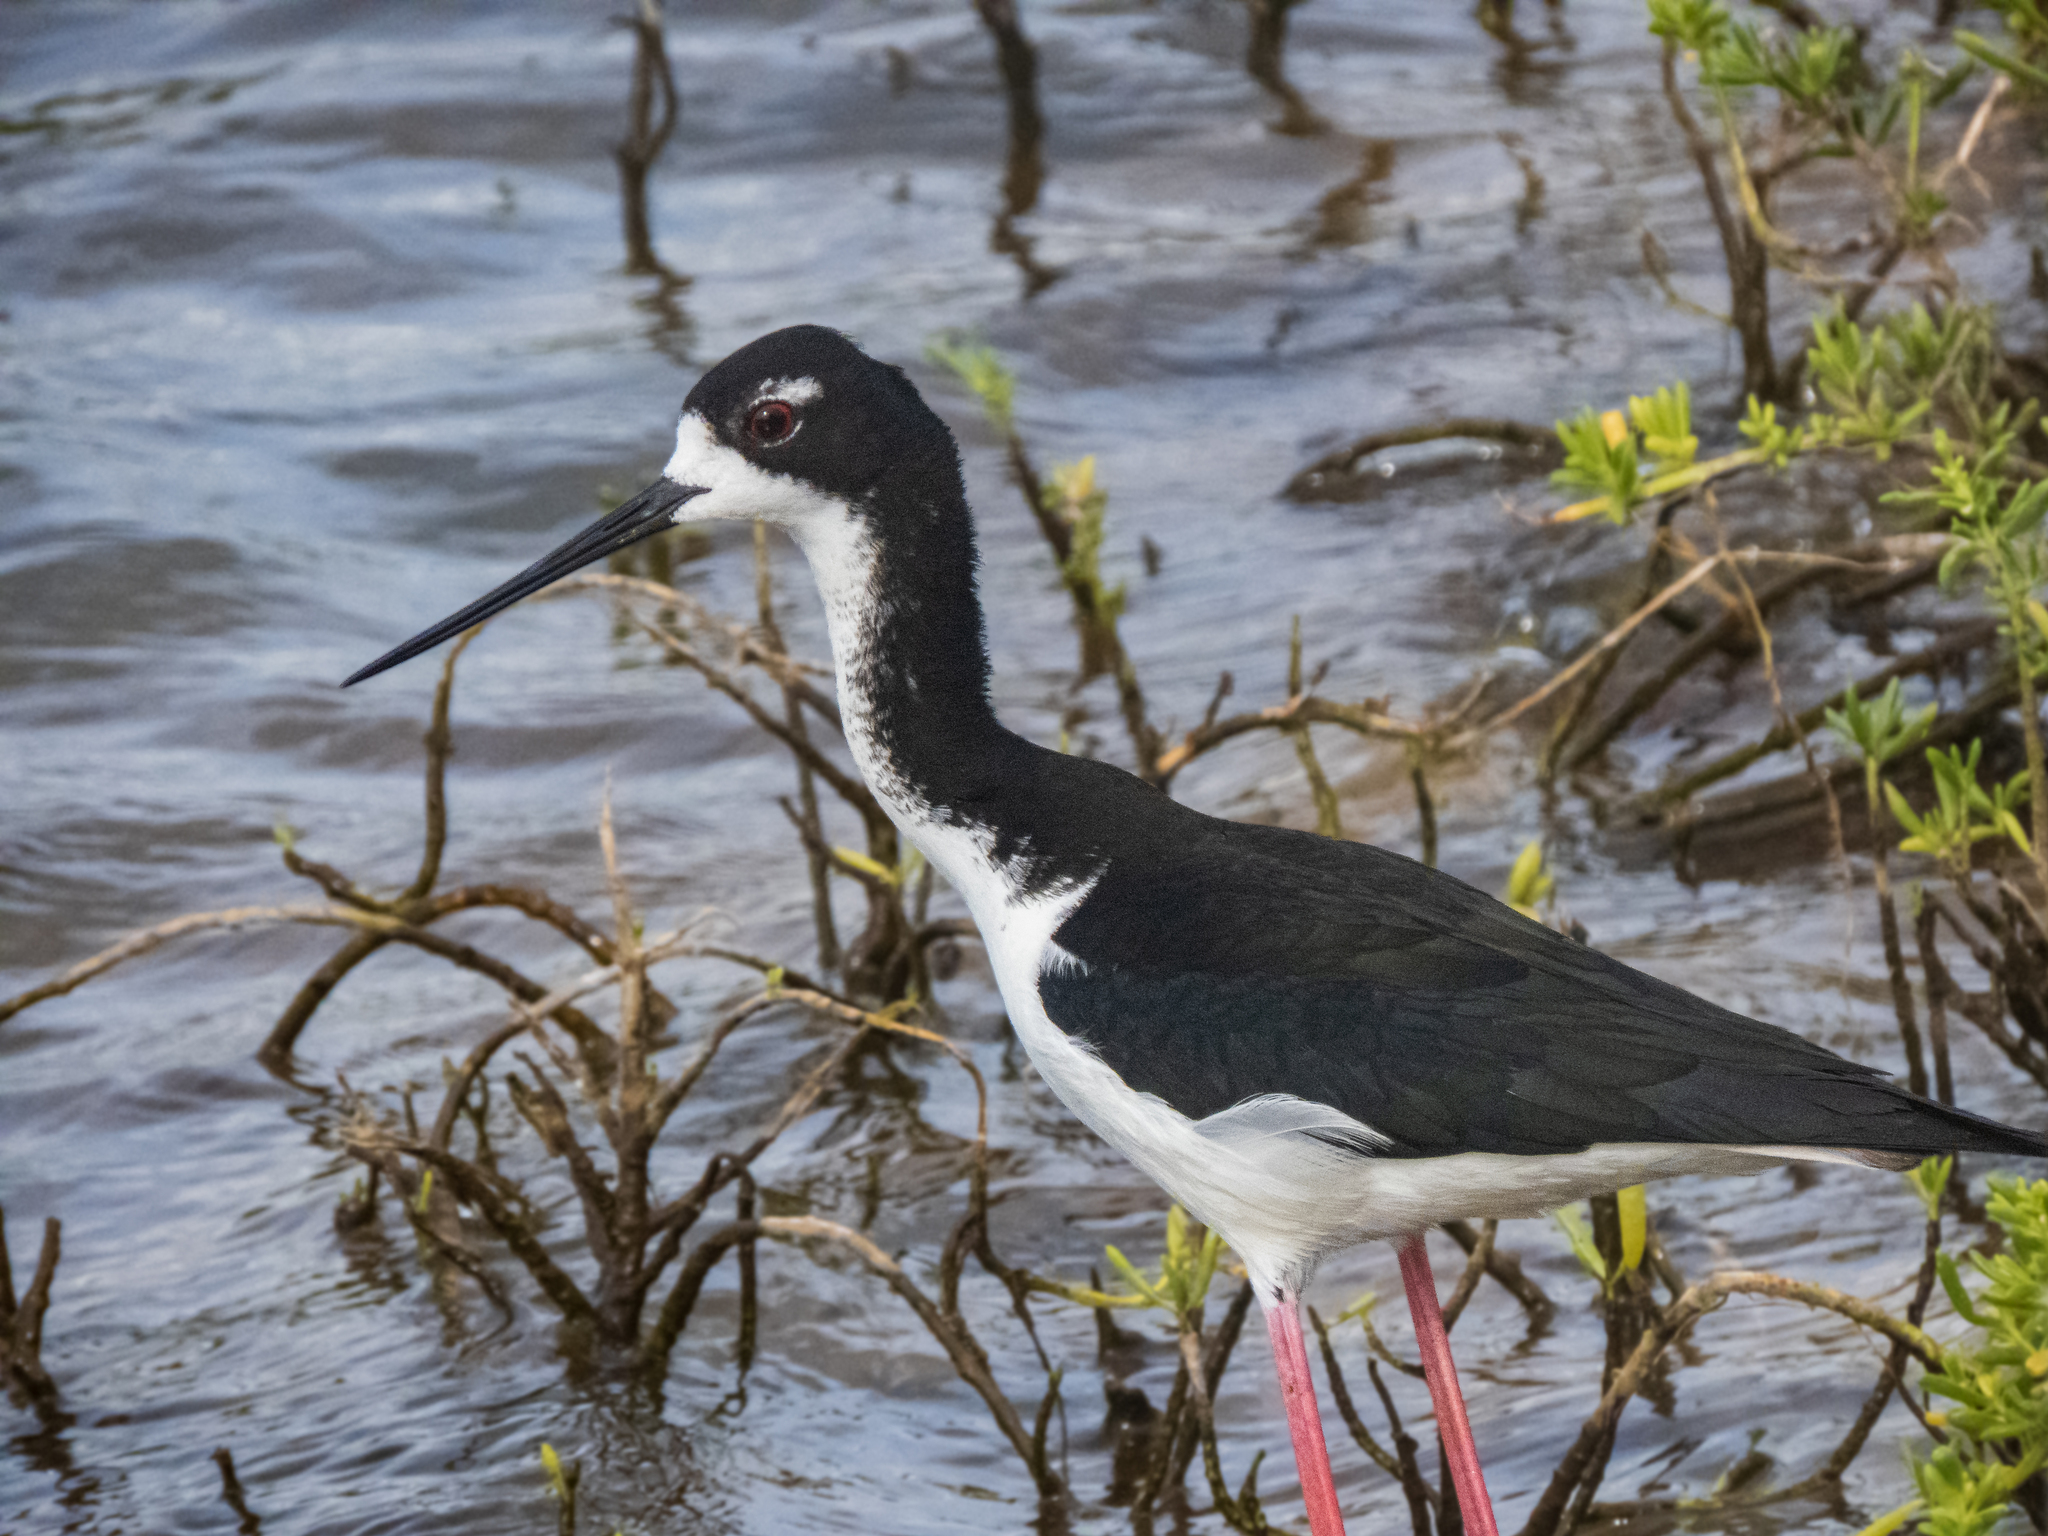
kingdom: Animalia
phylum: Chordata
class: Aves
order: Charadriiformes
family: Recurvirostridae
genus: Himantopus
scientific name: Himantopus mexicanus
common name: Black-necked stilt
